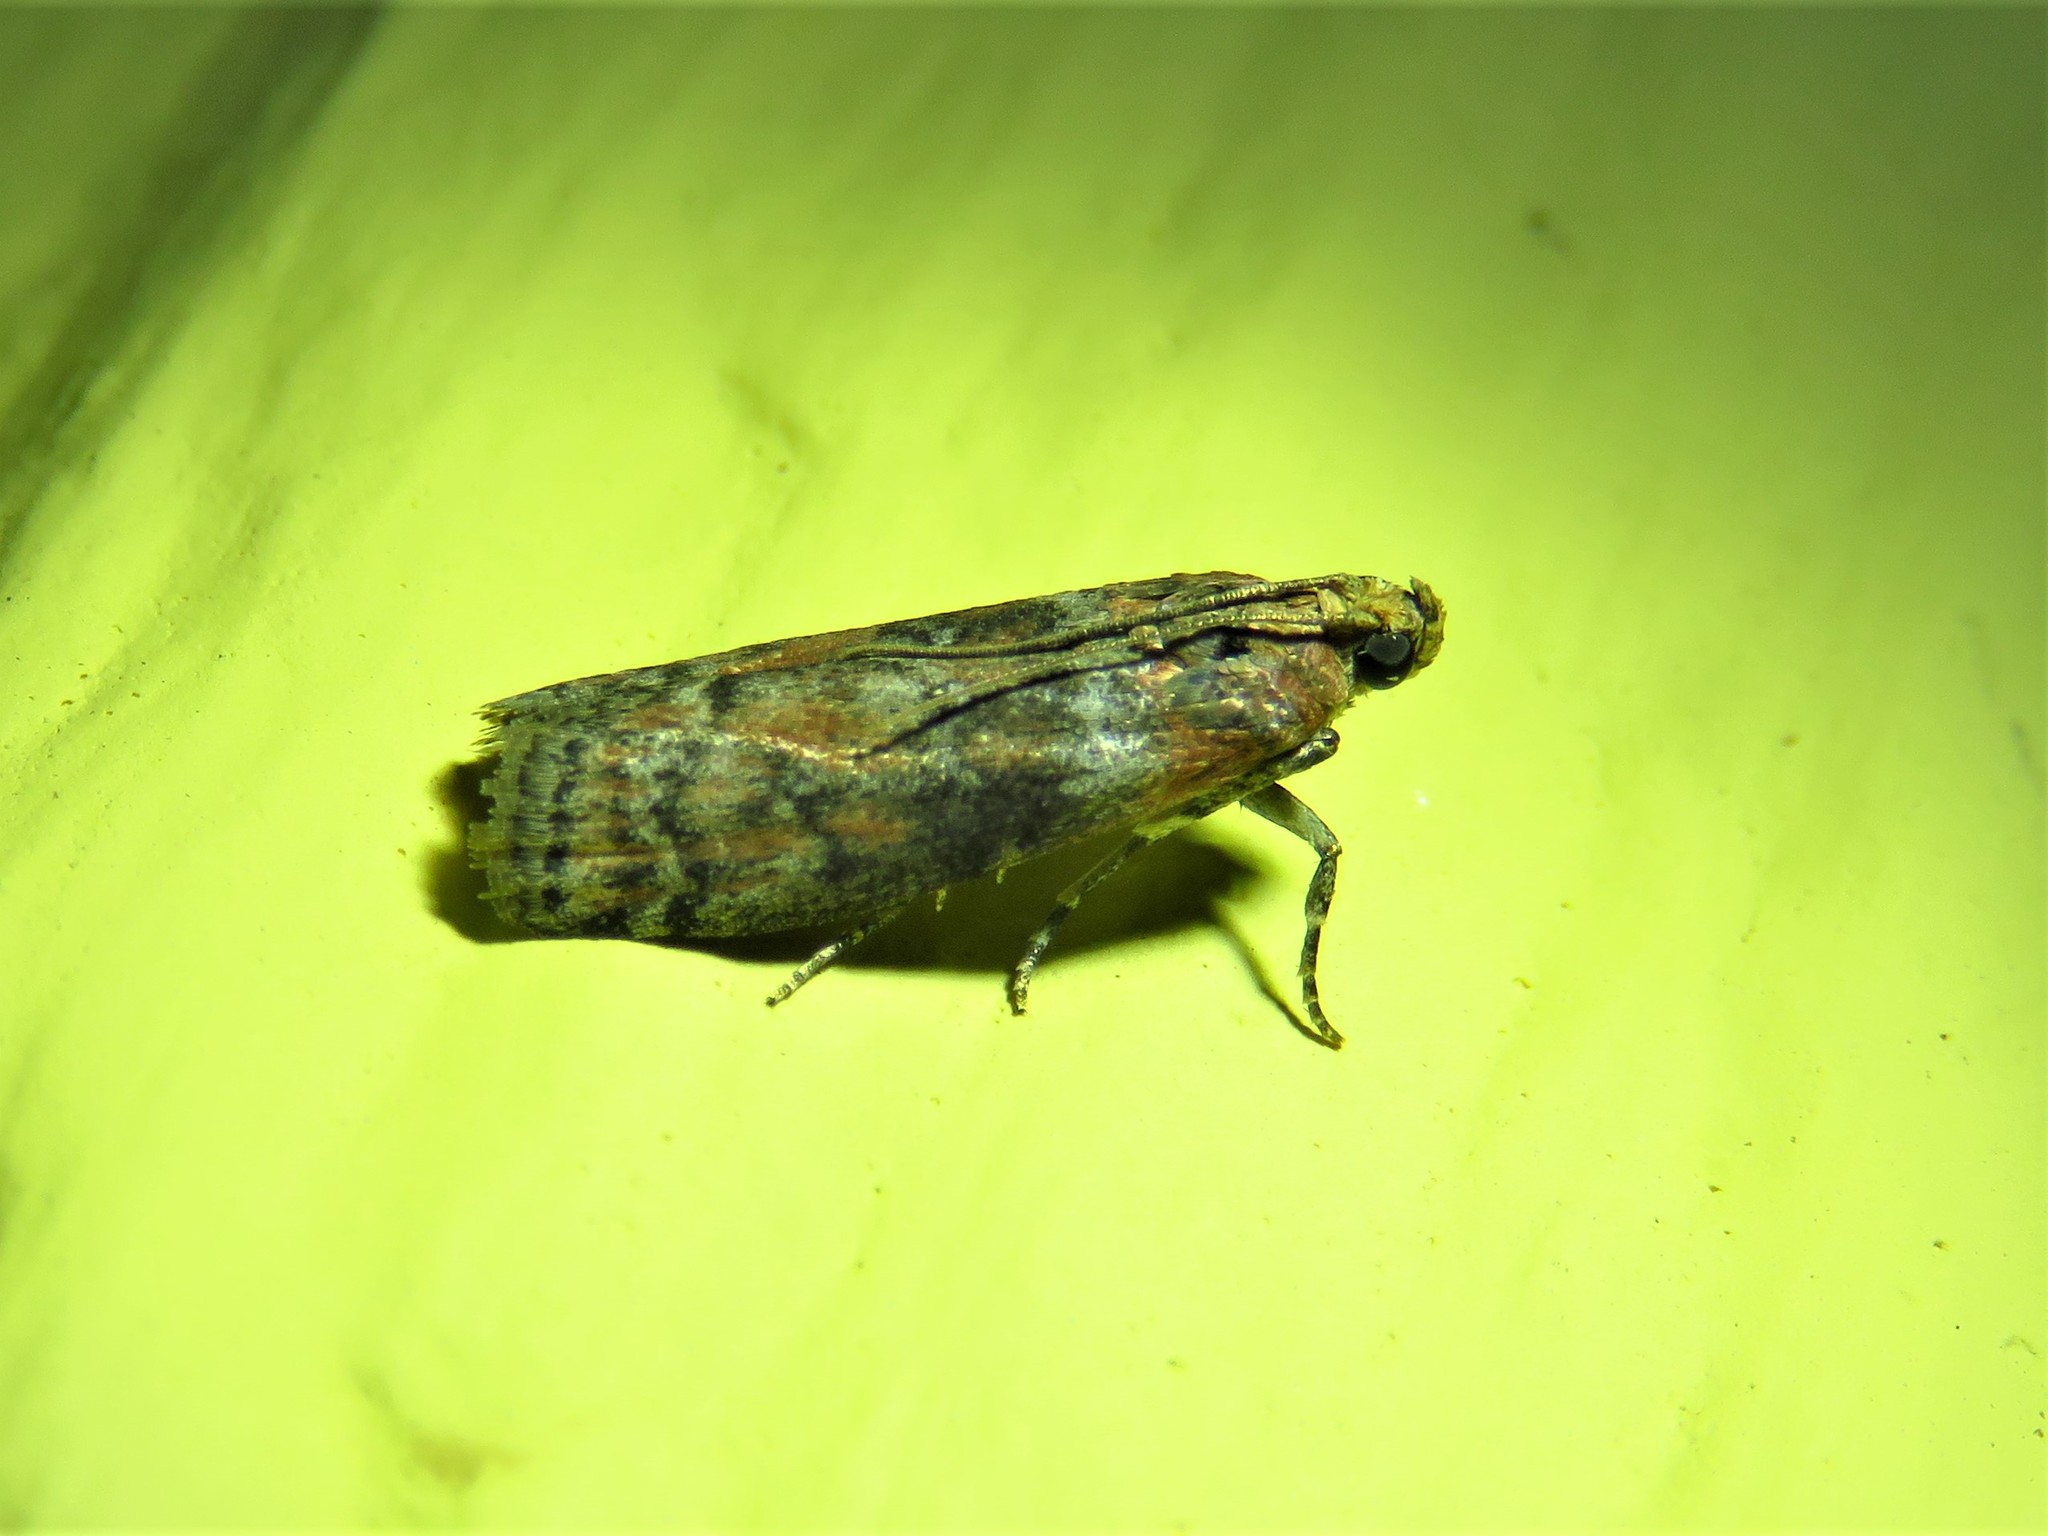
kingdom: Animalia
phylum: Arthropoda
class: Insecta
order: Lepidoptera
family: Pyralidae
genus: Sciota
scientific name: Sciota
